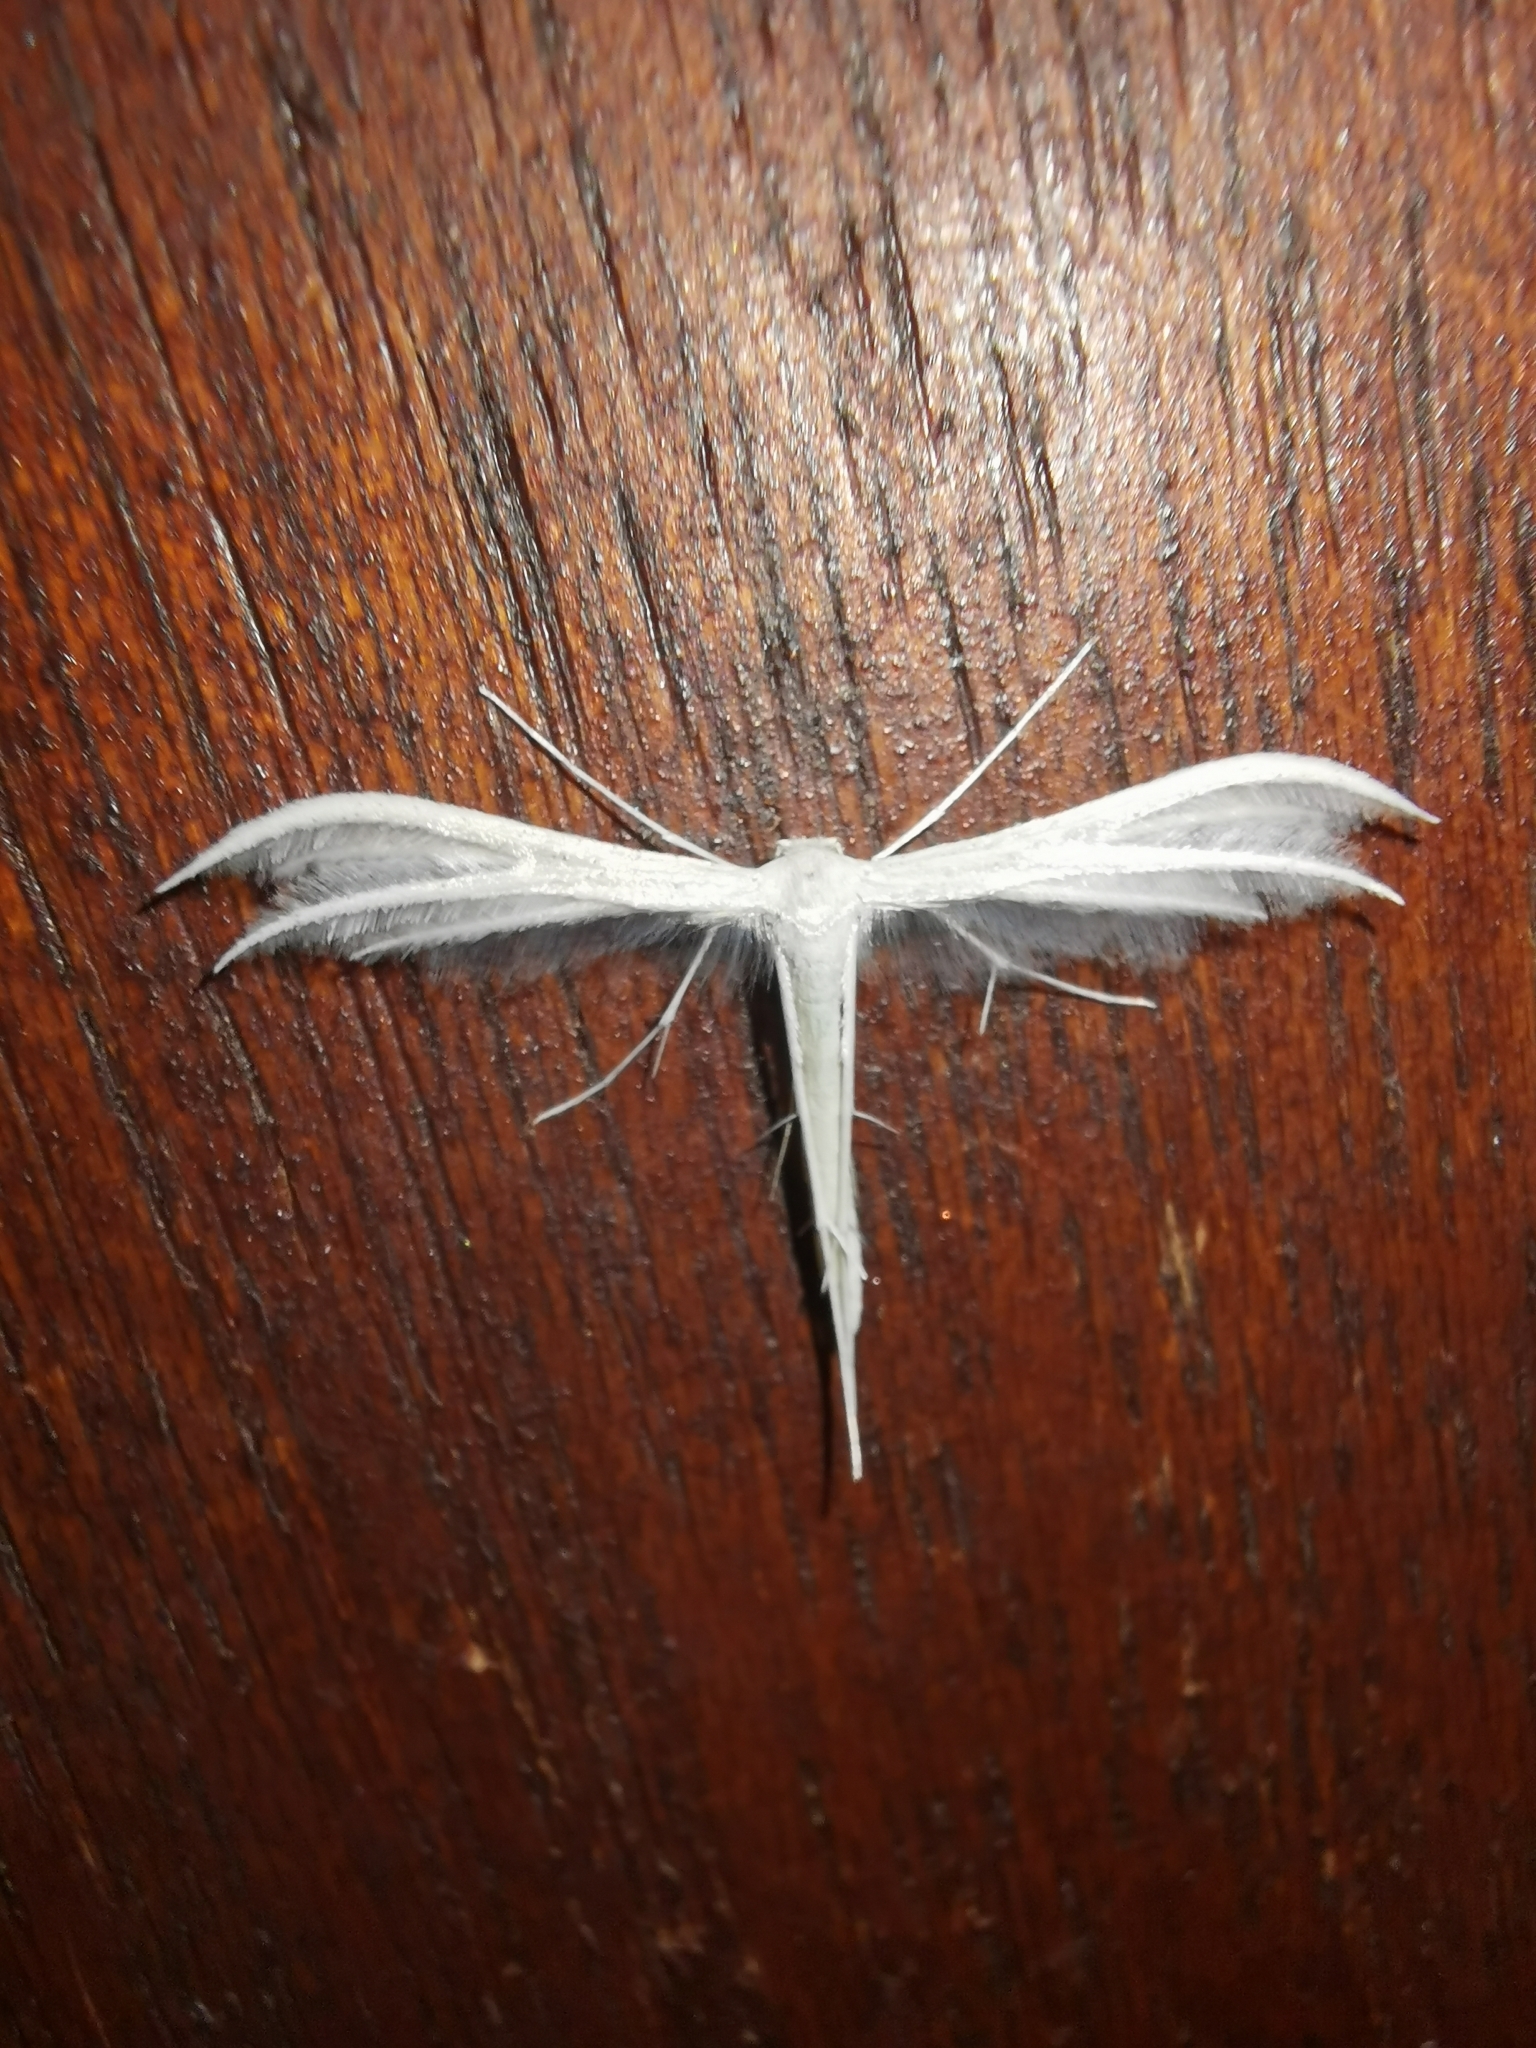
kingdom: Animalia
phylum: Arthropoda
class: Insecta
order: Lepidoptera
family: Pterophoridae
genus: Pterophorus
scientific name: Pterophorus pentadactyla
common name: White plume moth
